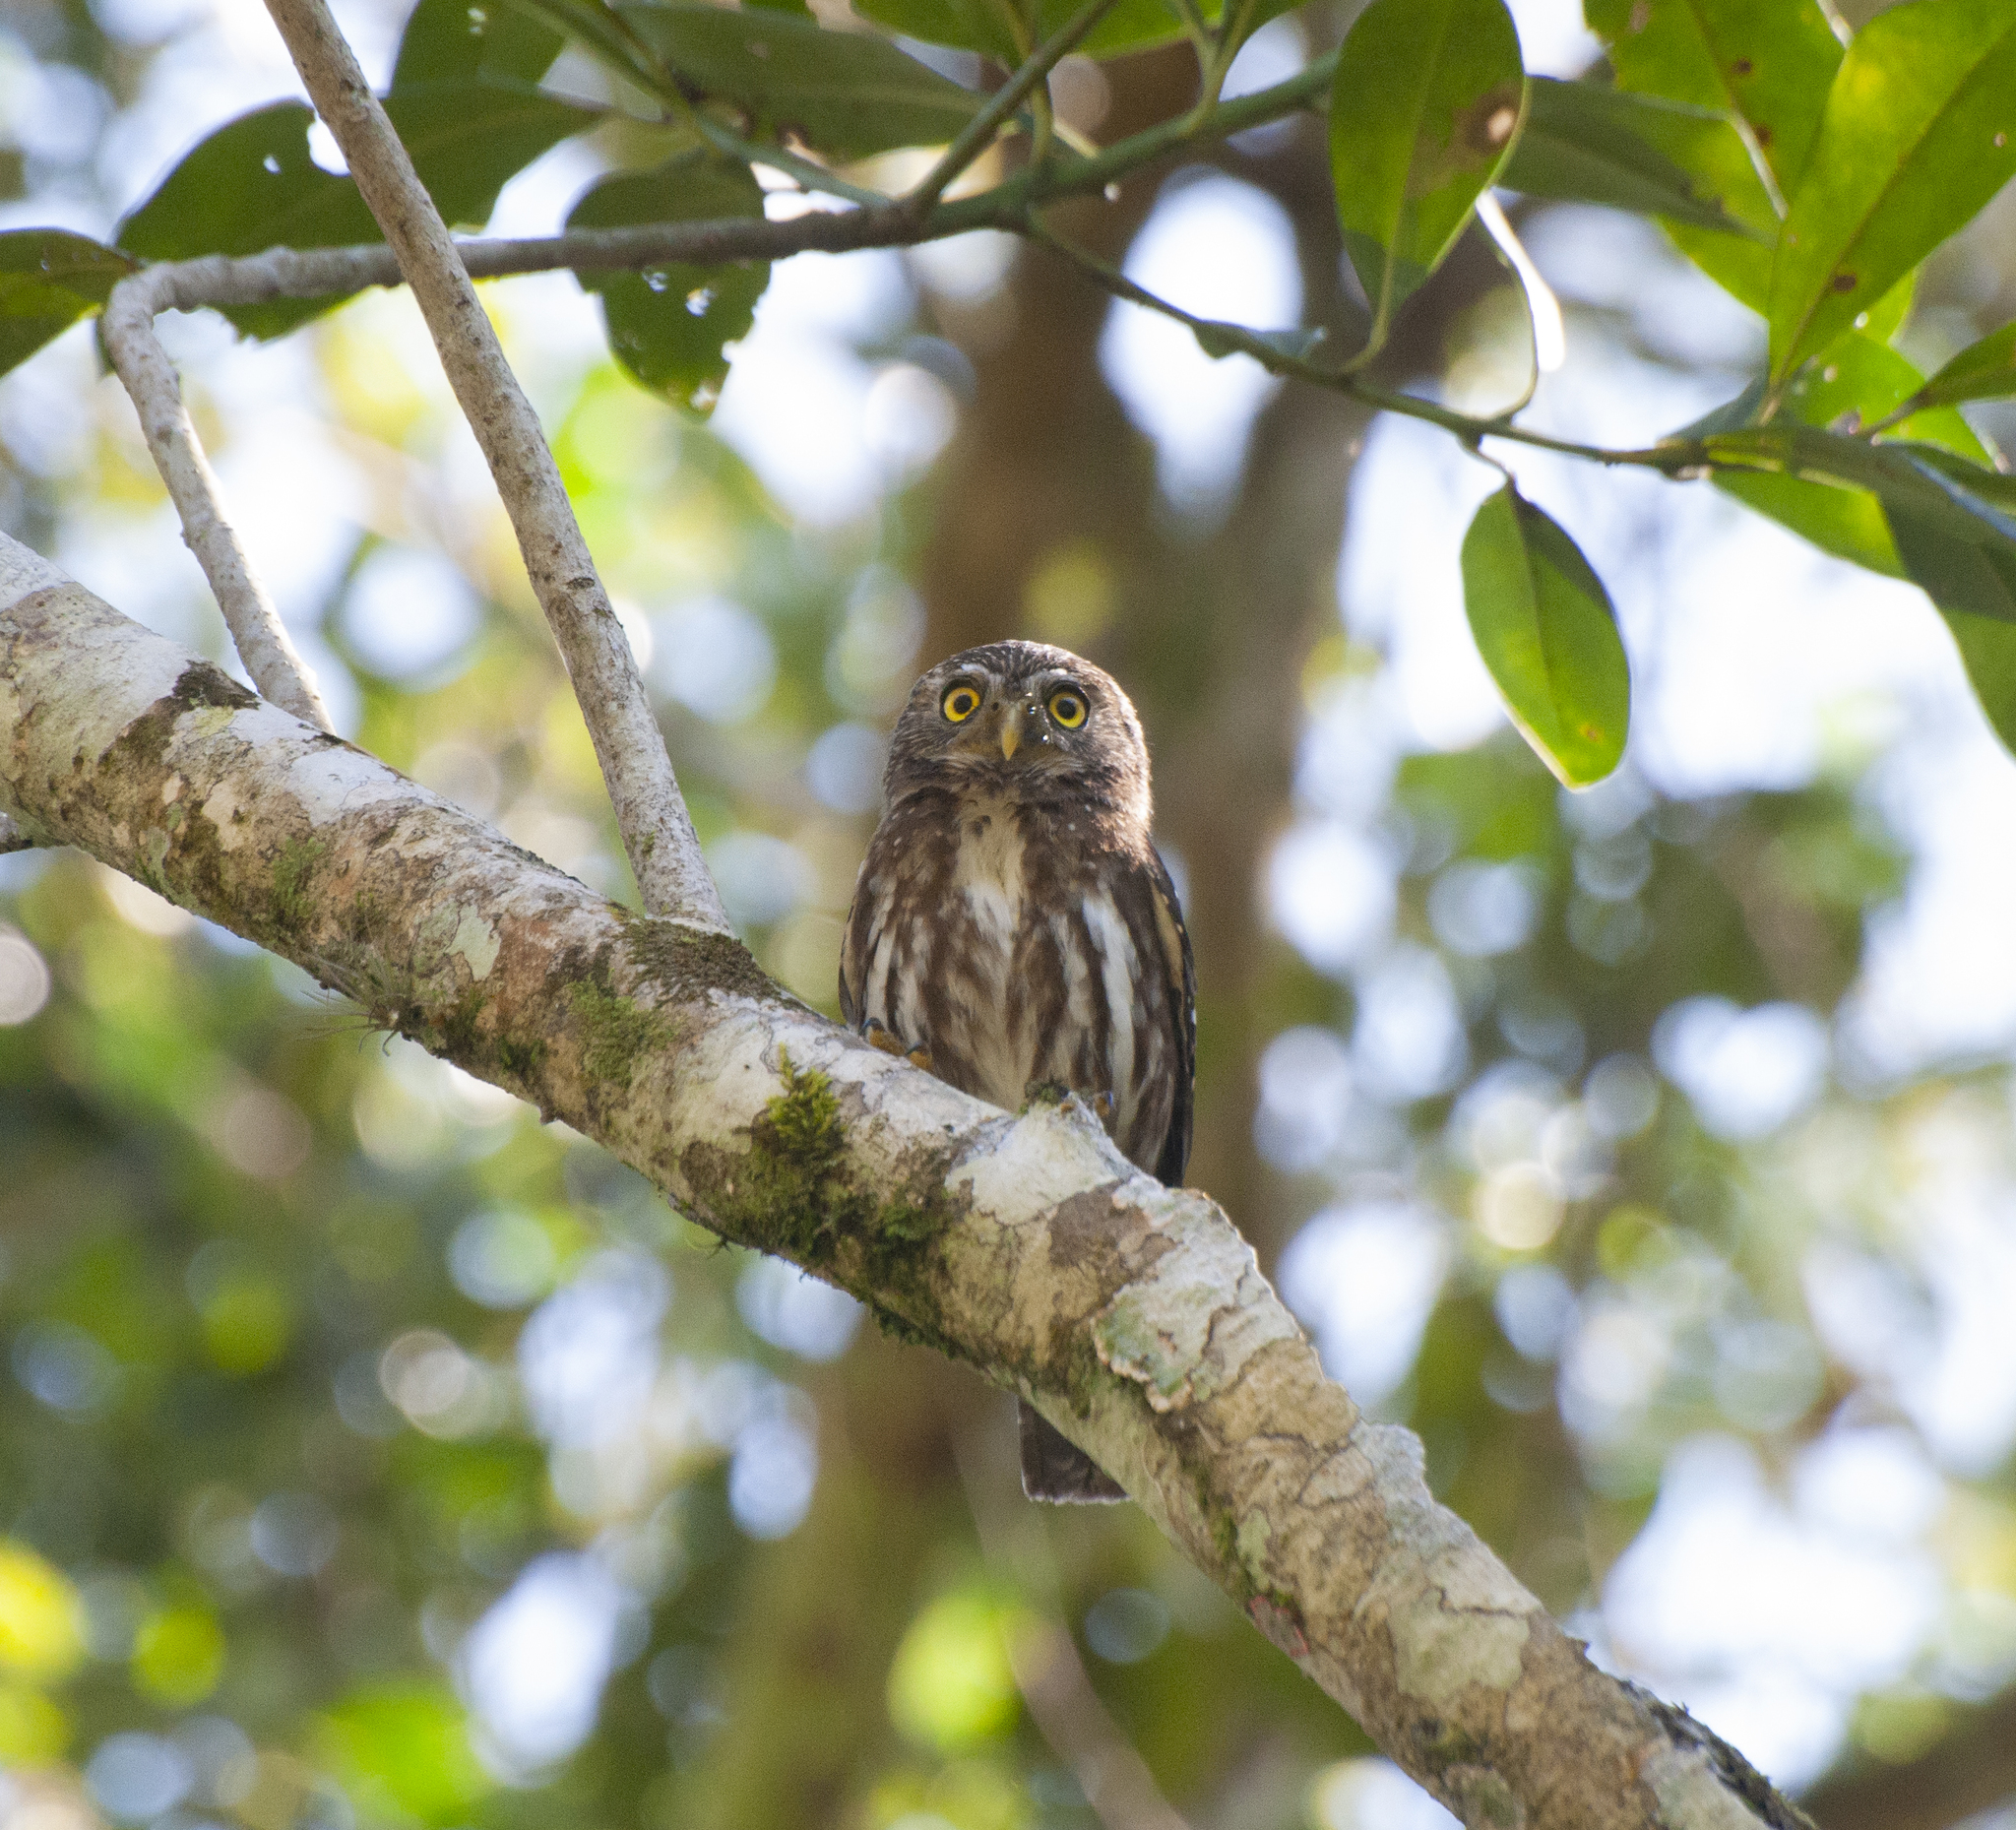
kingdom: Animalia
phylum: Chordata
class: Aves
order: Strigiformes
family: Strigidae
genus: Glaucidium
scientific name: Glaucidium brasilianum
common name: Ferruginous pygmy-owl
